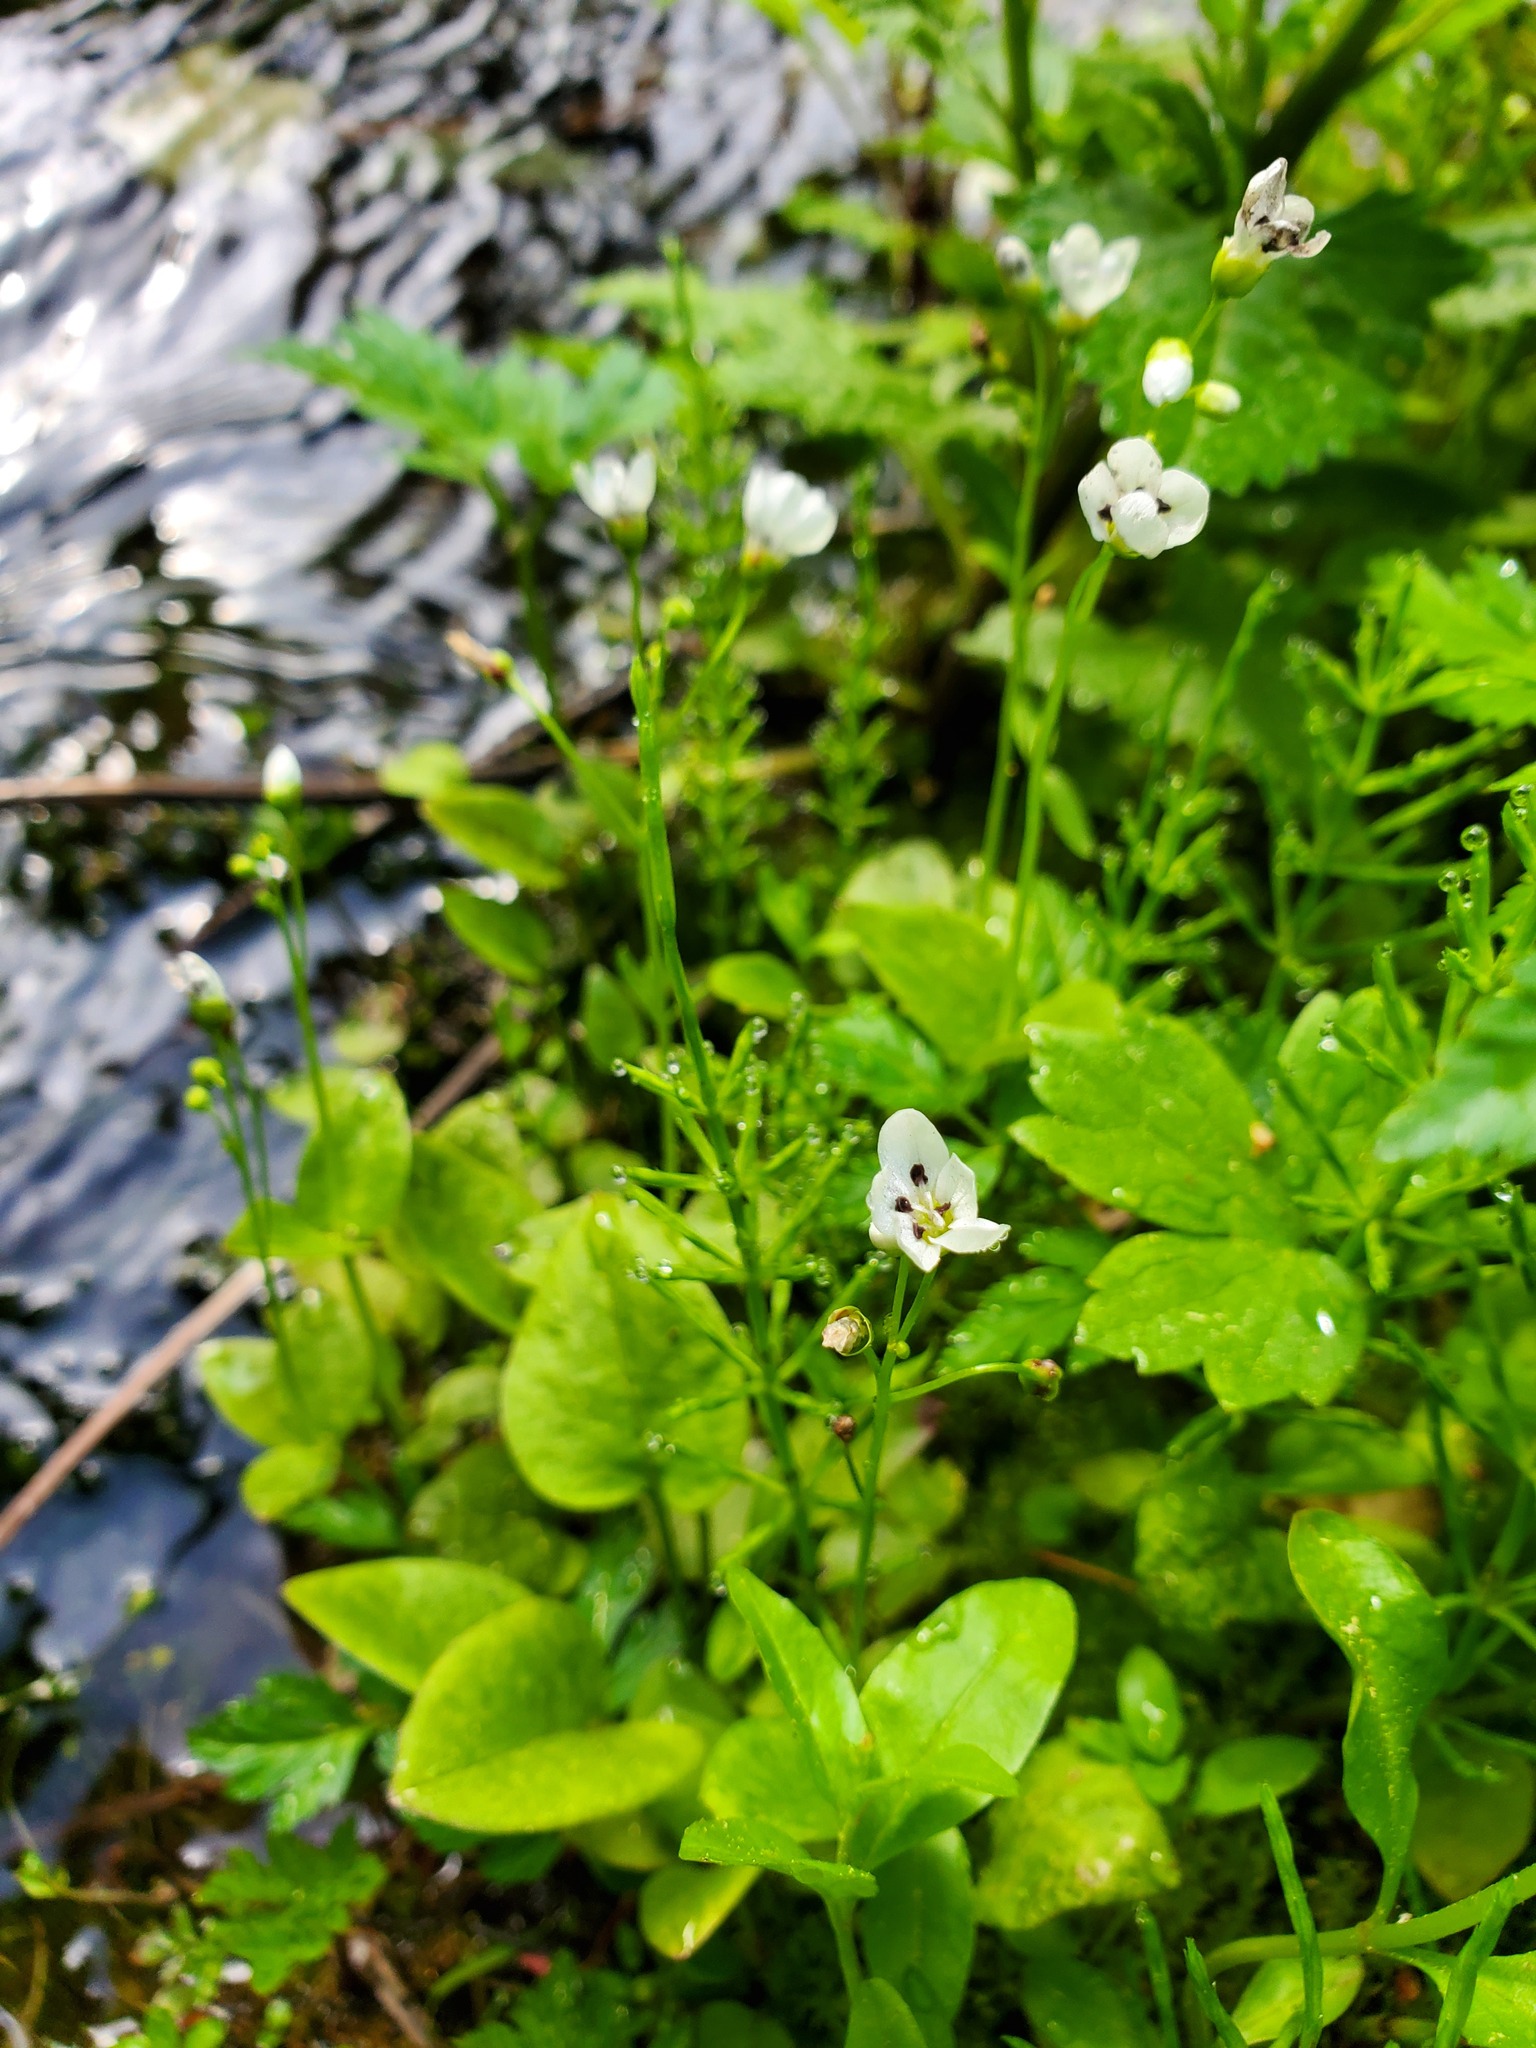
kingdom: Plantae
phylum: Tracheophyta
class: Magnoliopsida
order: Caryophyllales
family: Montiaceae
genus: Claytonia
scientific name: Claytonia cordifolia
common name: Broad-leaved spring beauty
